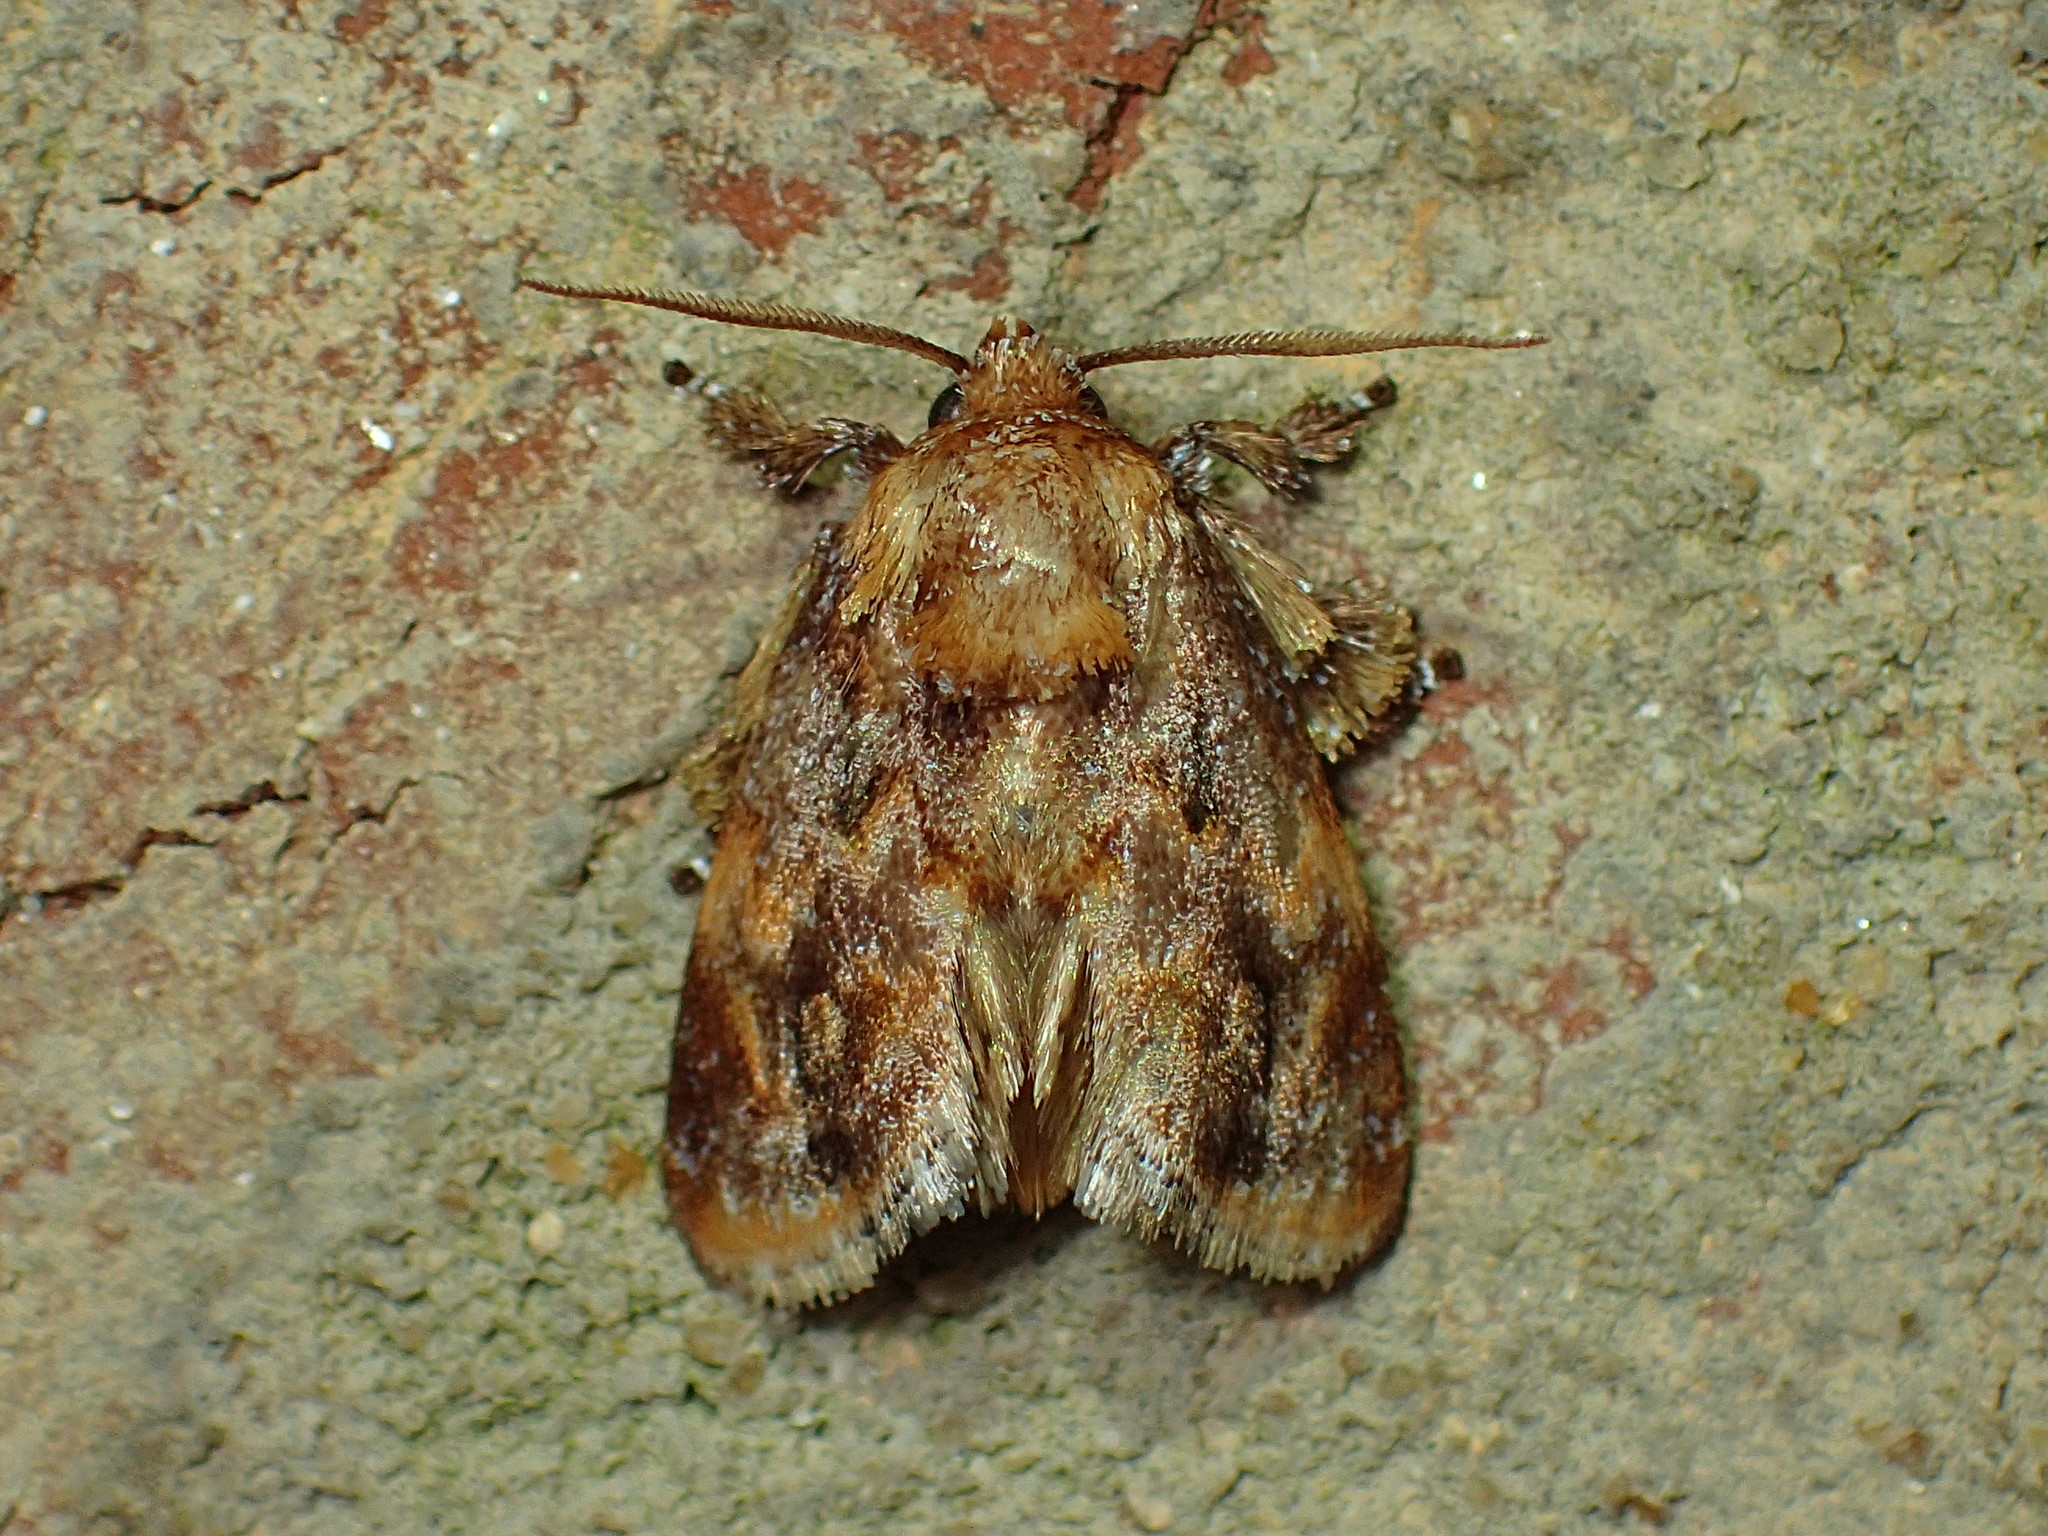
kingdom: Animalia
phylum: Arthropoda
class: Insecta
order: Lepidoptera
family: Limacodidae
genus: Isochaetes
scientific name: Isochaetes beutenmuelleri
